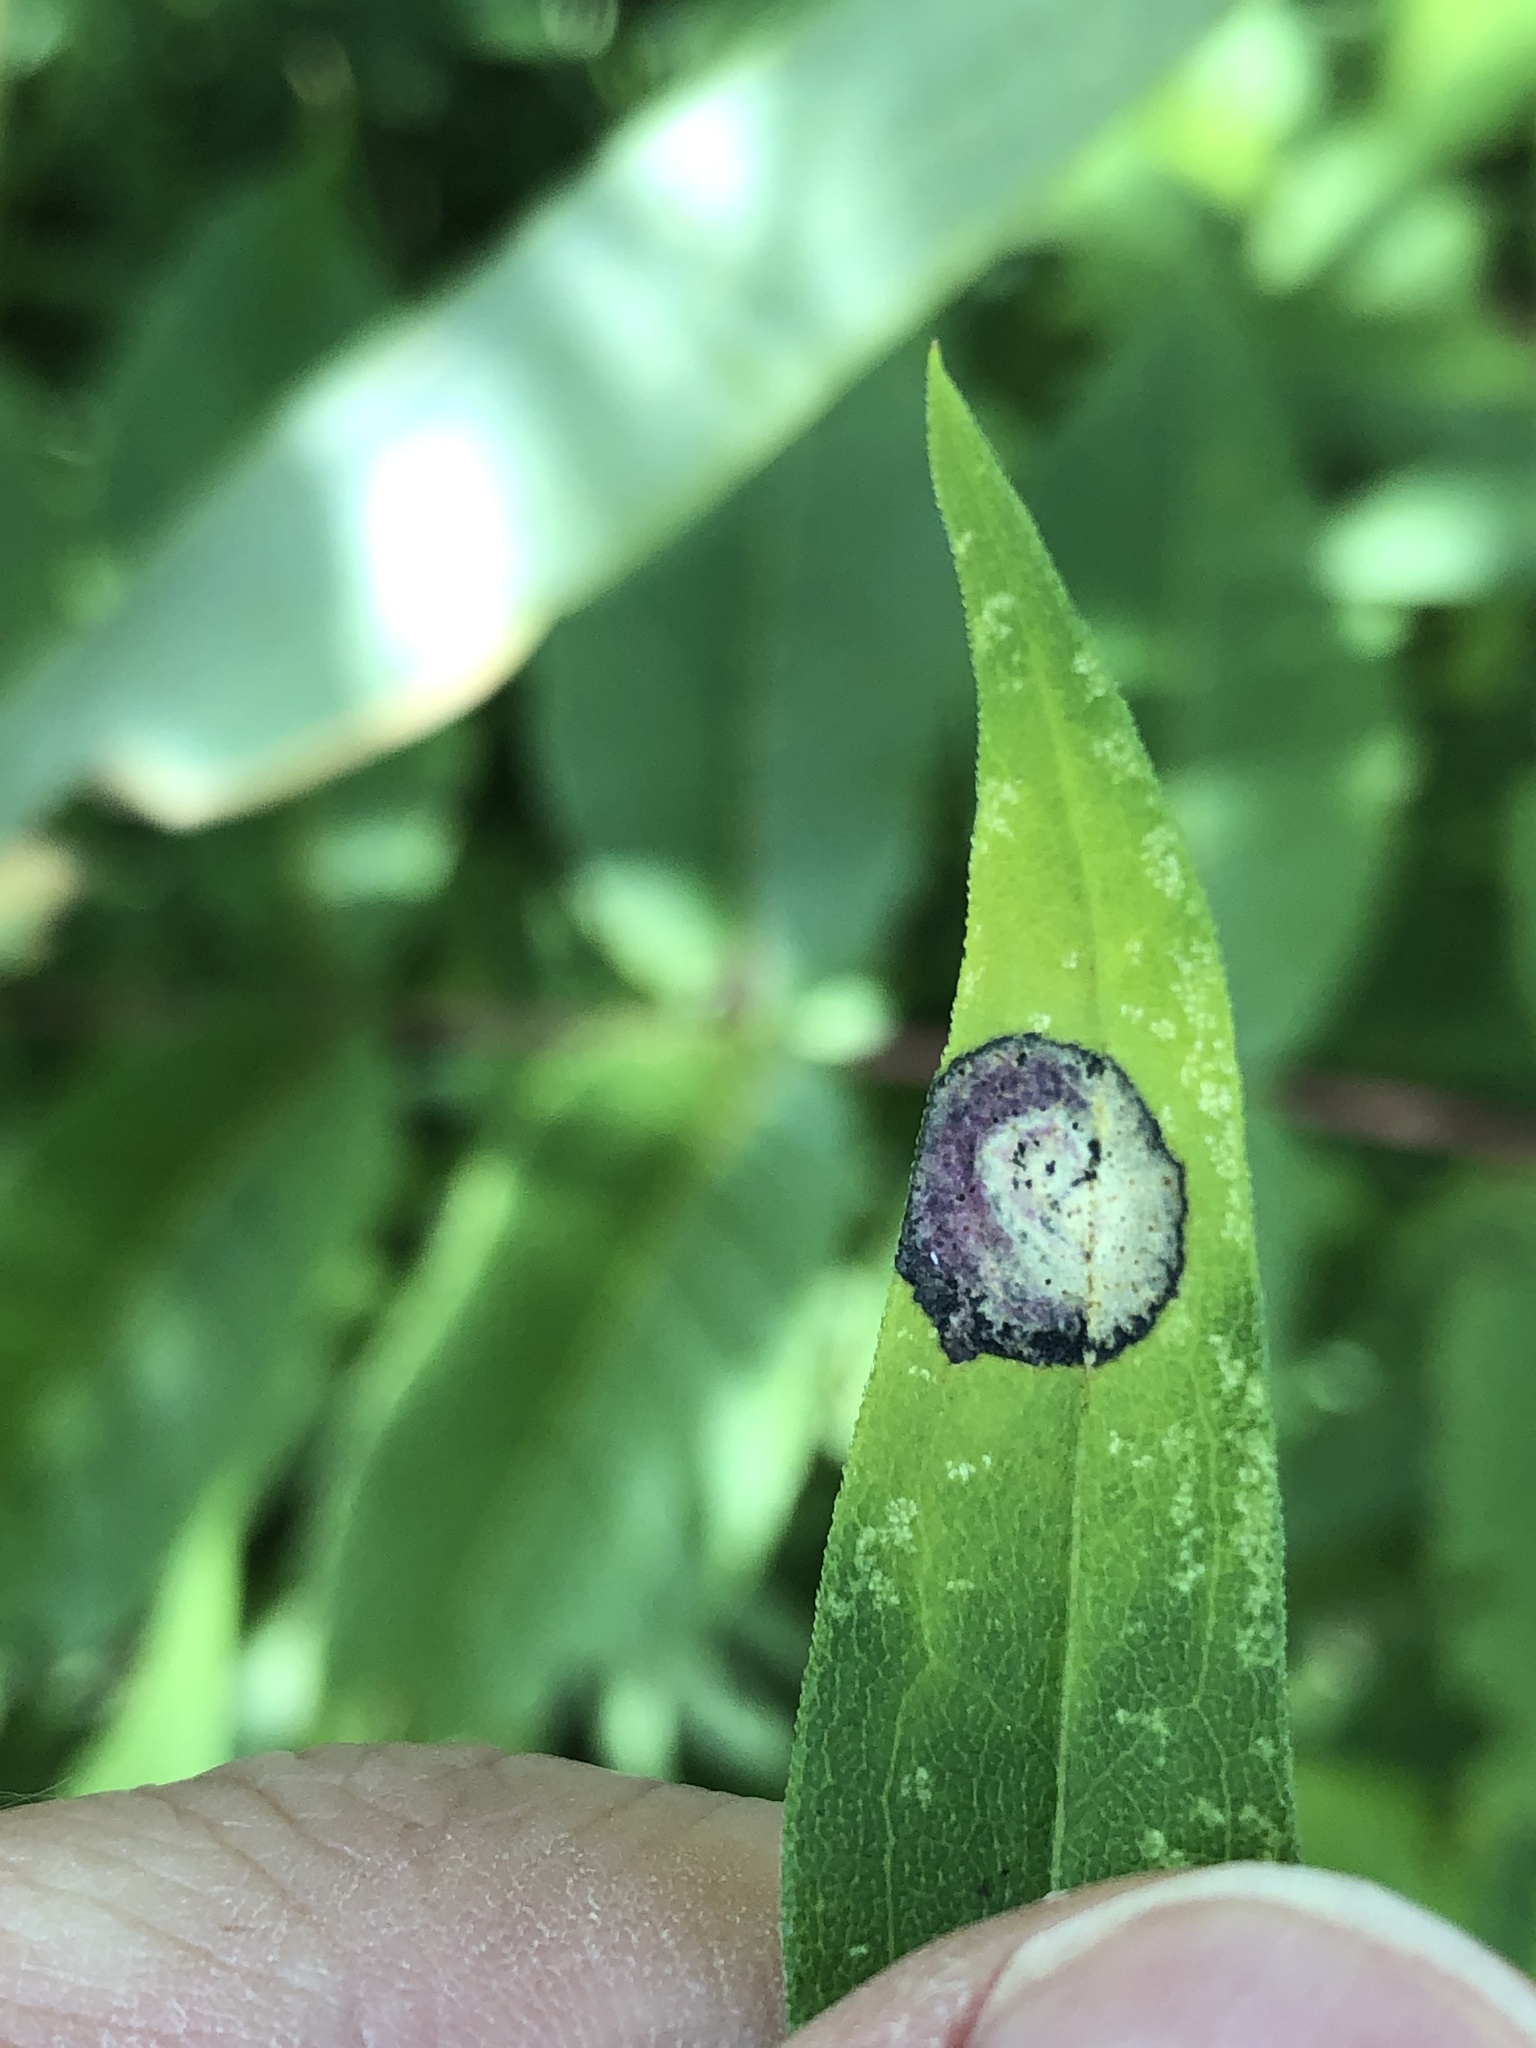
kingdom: Animalia
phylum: Arthropoda
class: Insecta
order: Diptera
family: Cecidomyiidae
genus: Asteromyia
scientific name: Asteromyia carbonifera
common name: Carbonifera goldenrod gall midge
